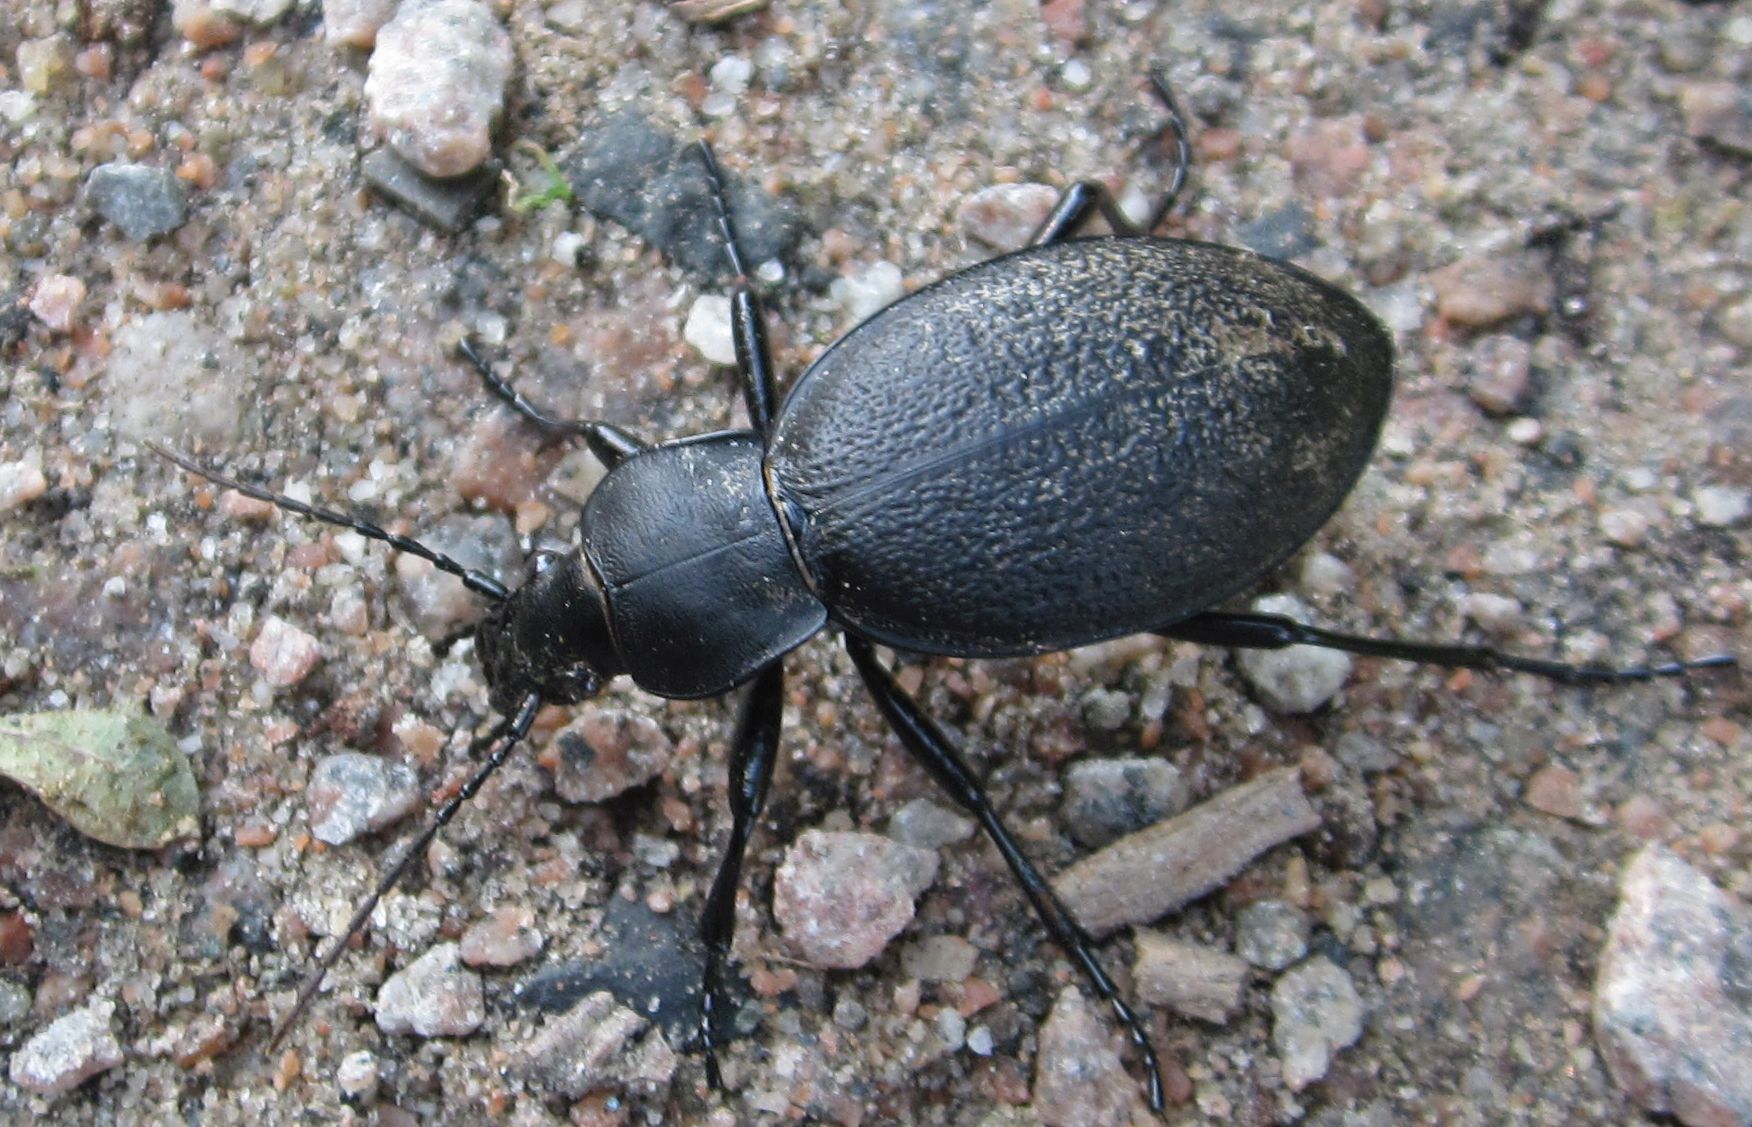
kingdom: Animalia
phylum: Arthropoda
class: Insecta
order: Coleoptera
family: Carabidae
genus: Carabus
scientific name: Carabus coriaceus
